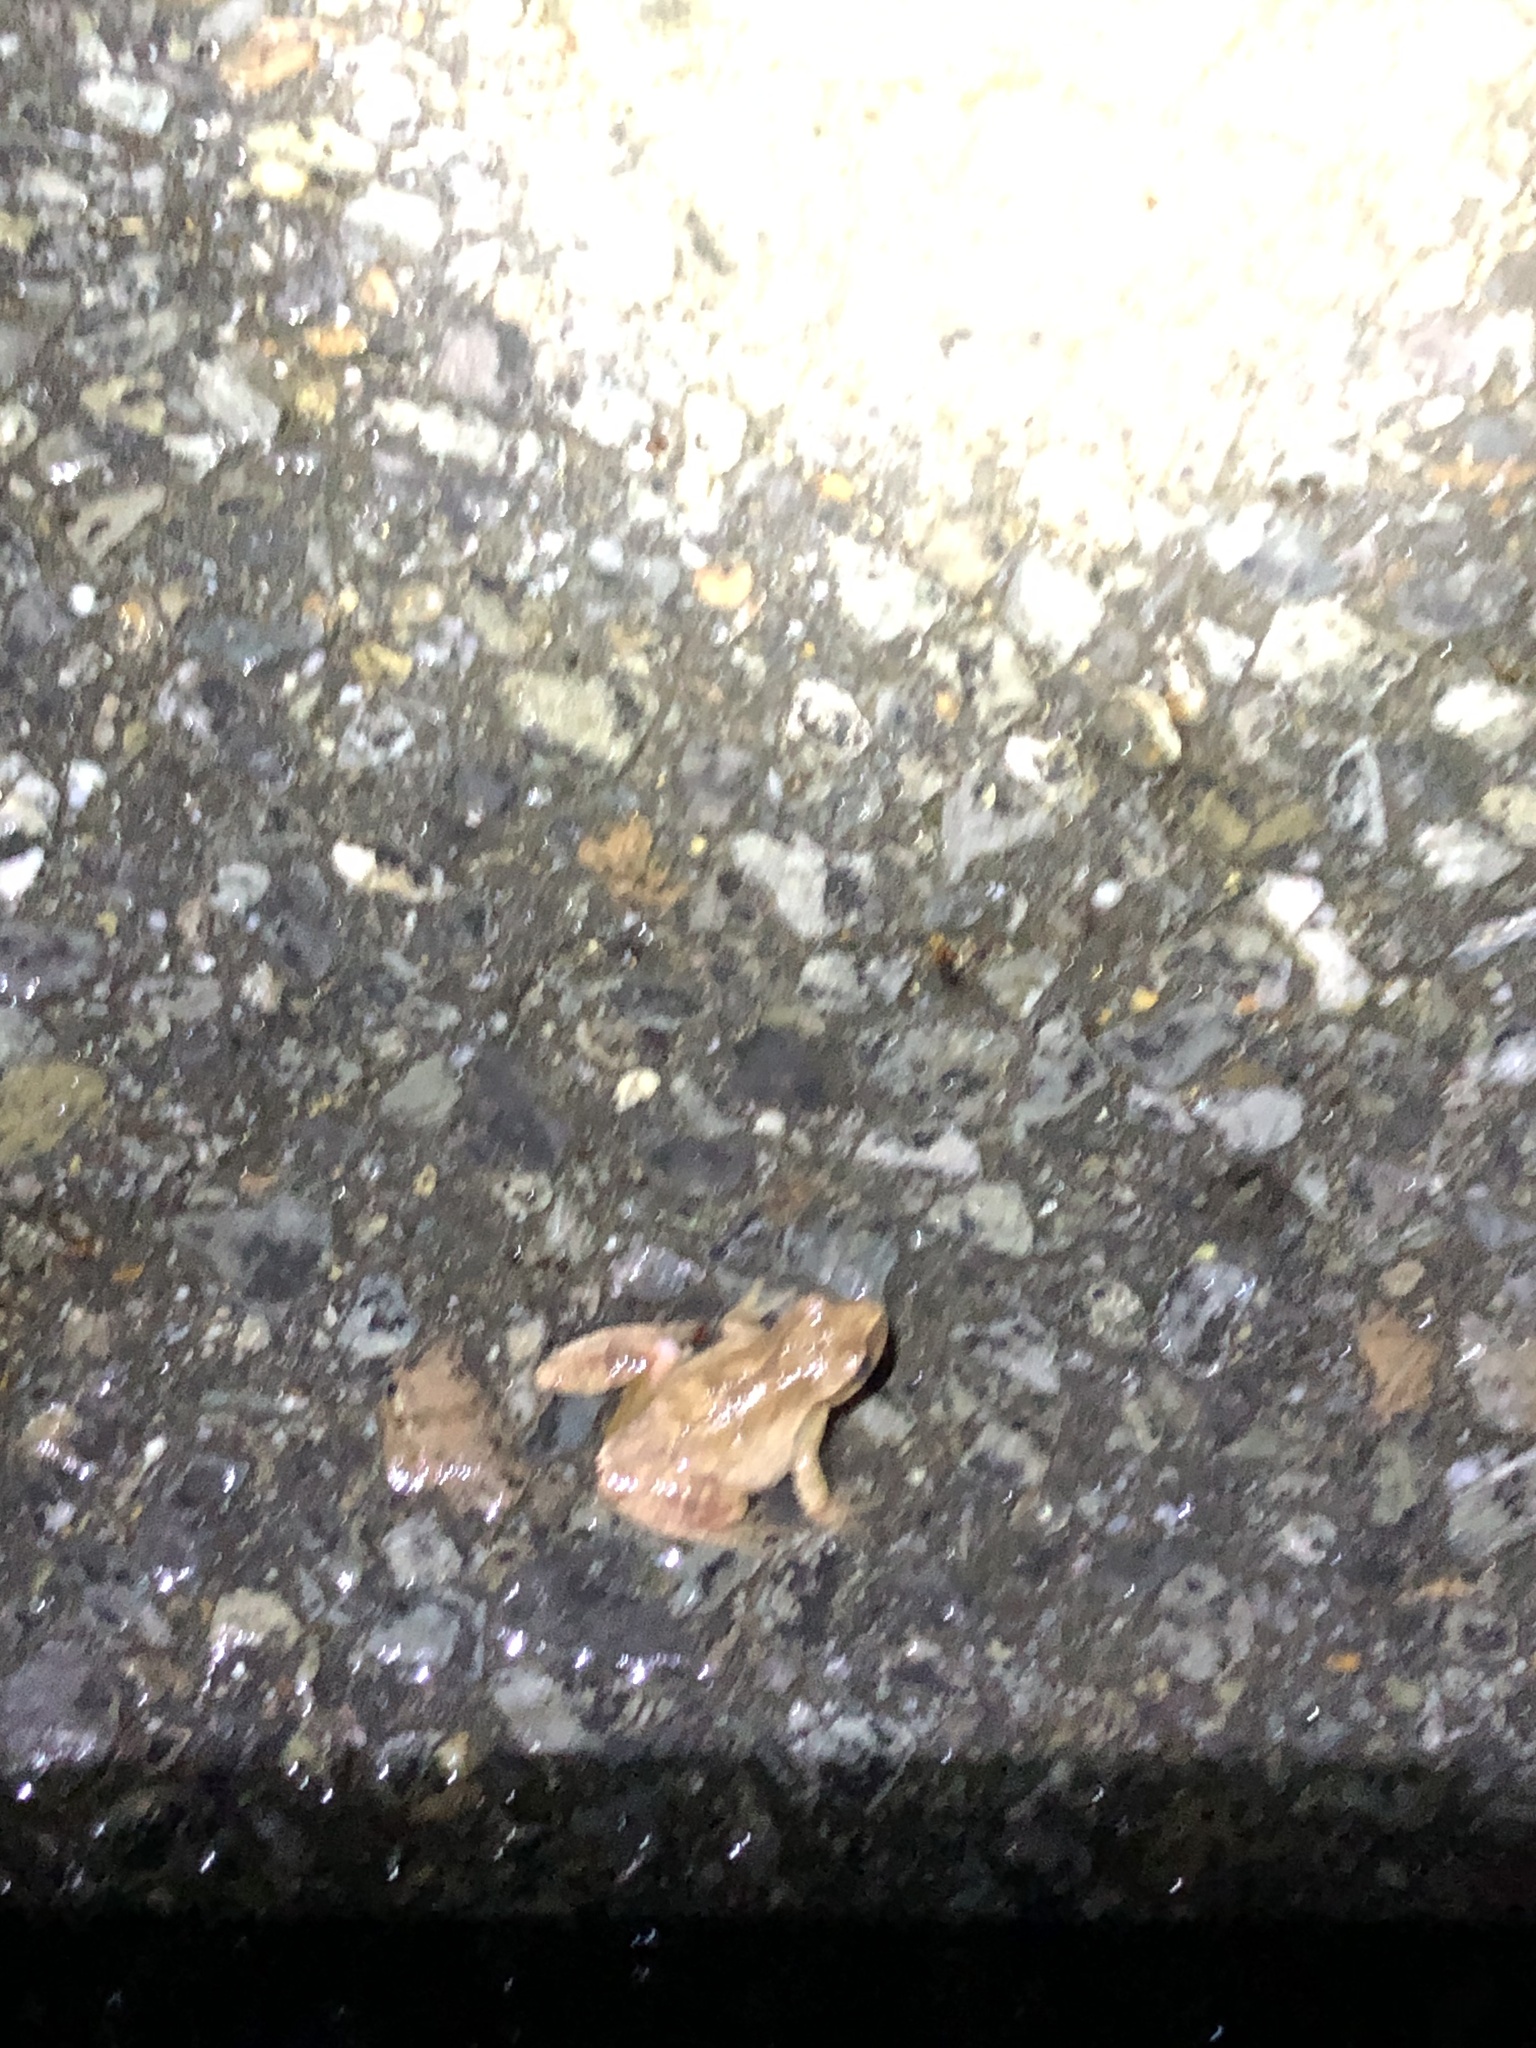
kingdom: Animalia
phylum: Chordata
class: Amphibia
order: Anura
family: Hylidae
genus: Pseudacris
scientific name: Pseudacris crucifer
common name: Spring peeper
